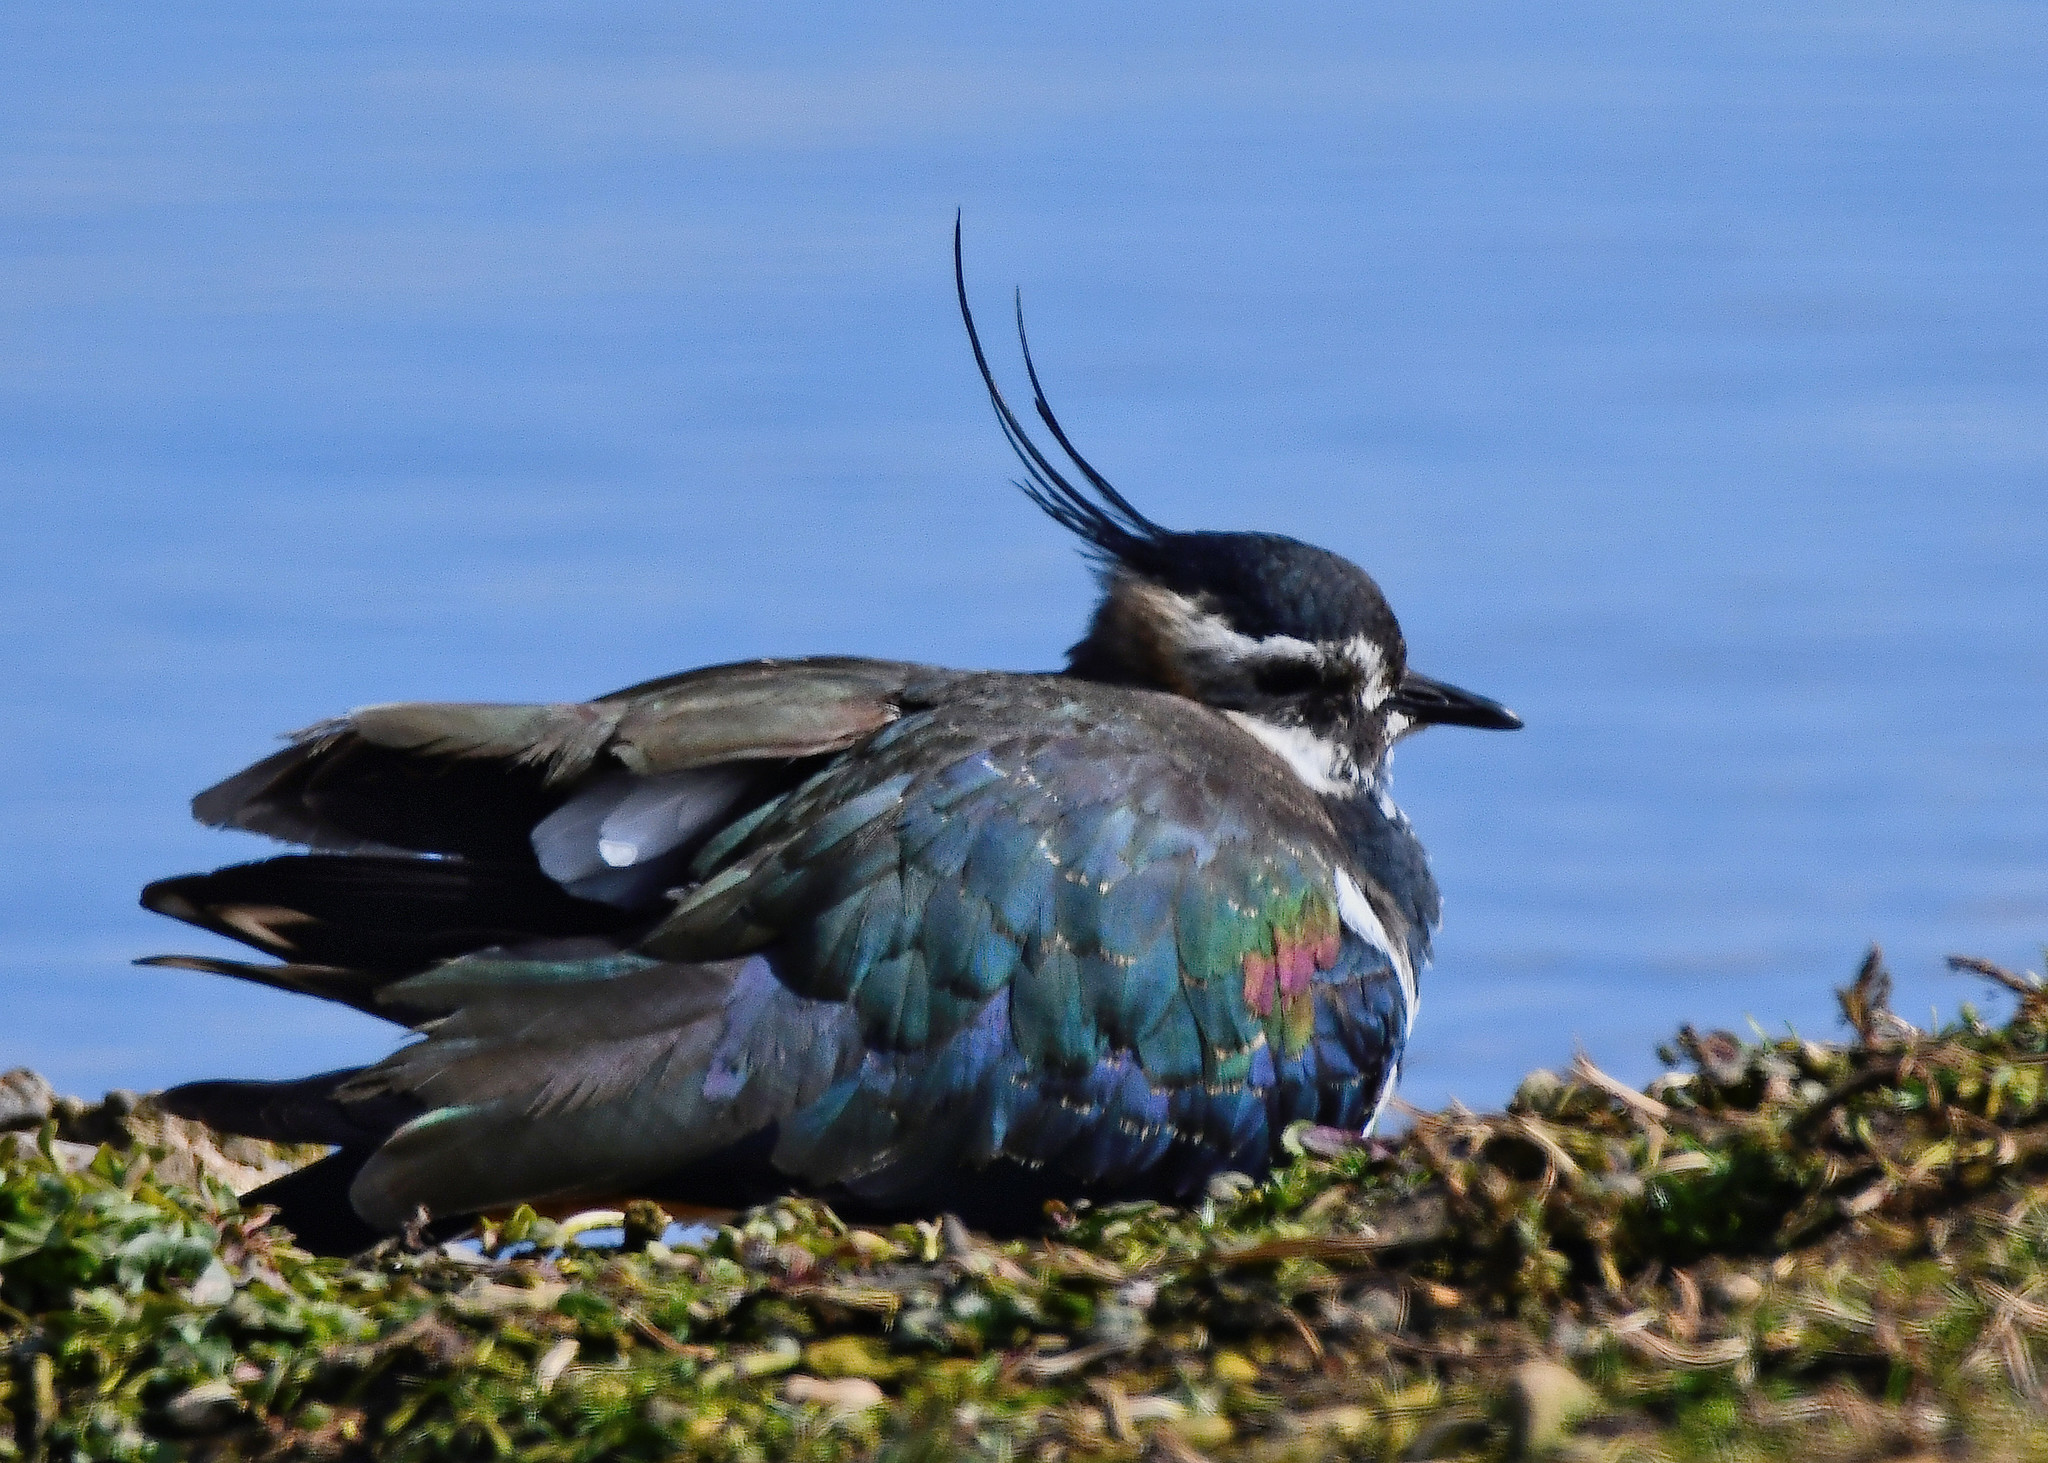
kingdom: Animalia
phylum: Chordata
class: Aves
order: Charadriiformes
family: Charadriidae
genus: Vanellus
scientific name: Vanellus vanellus
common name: Northern lapwing
